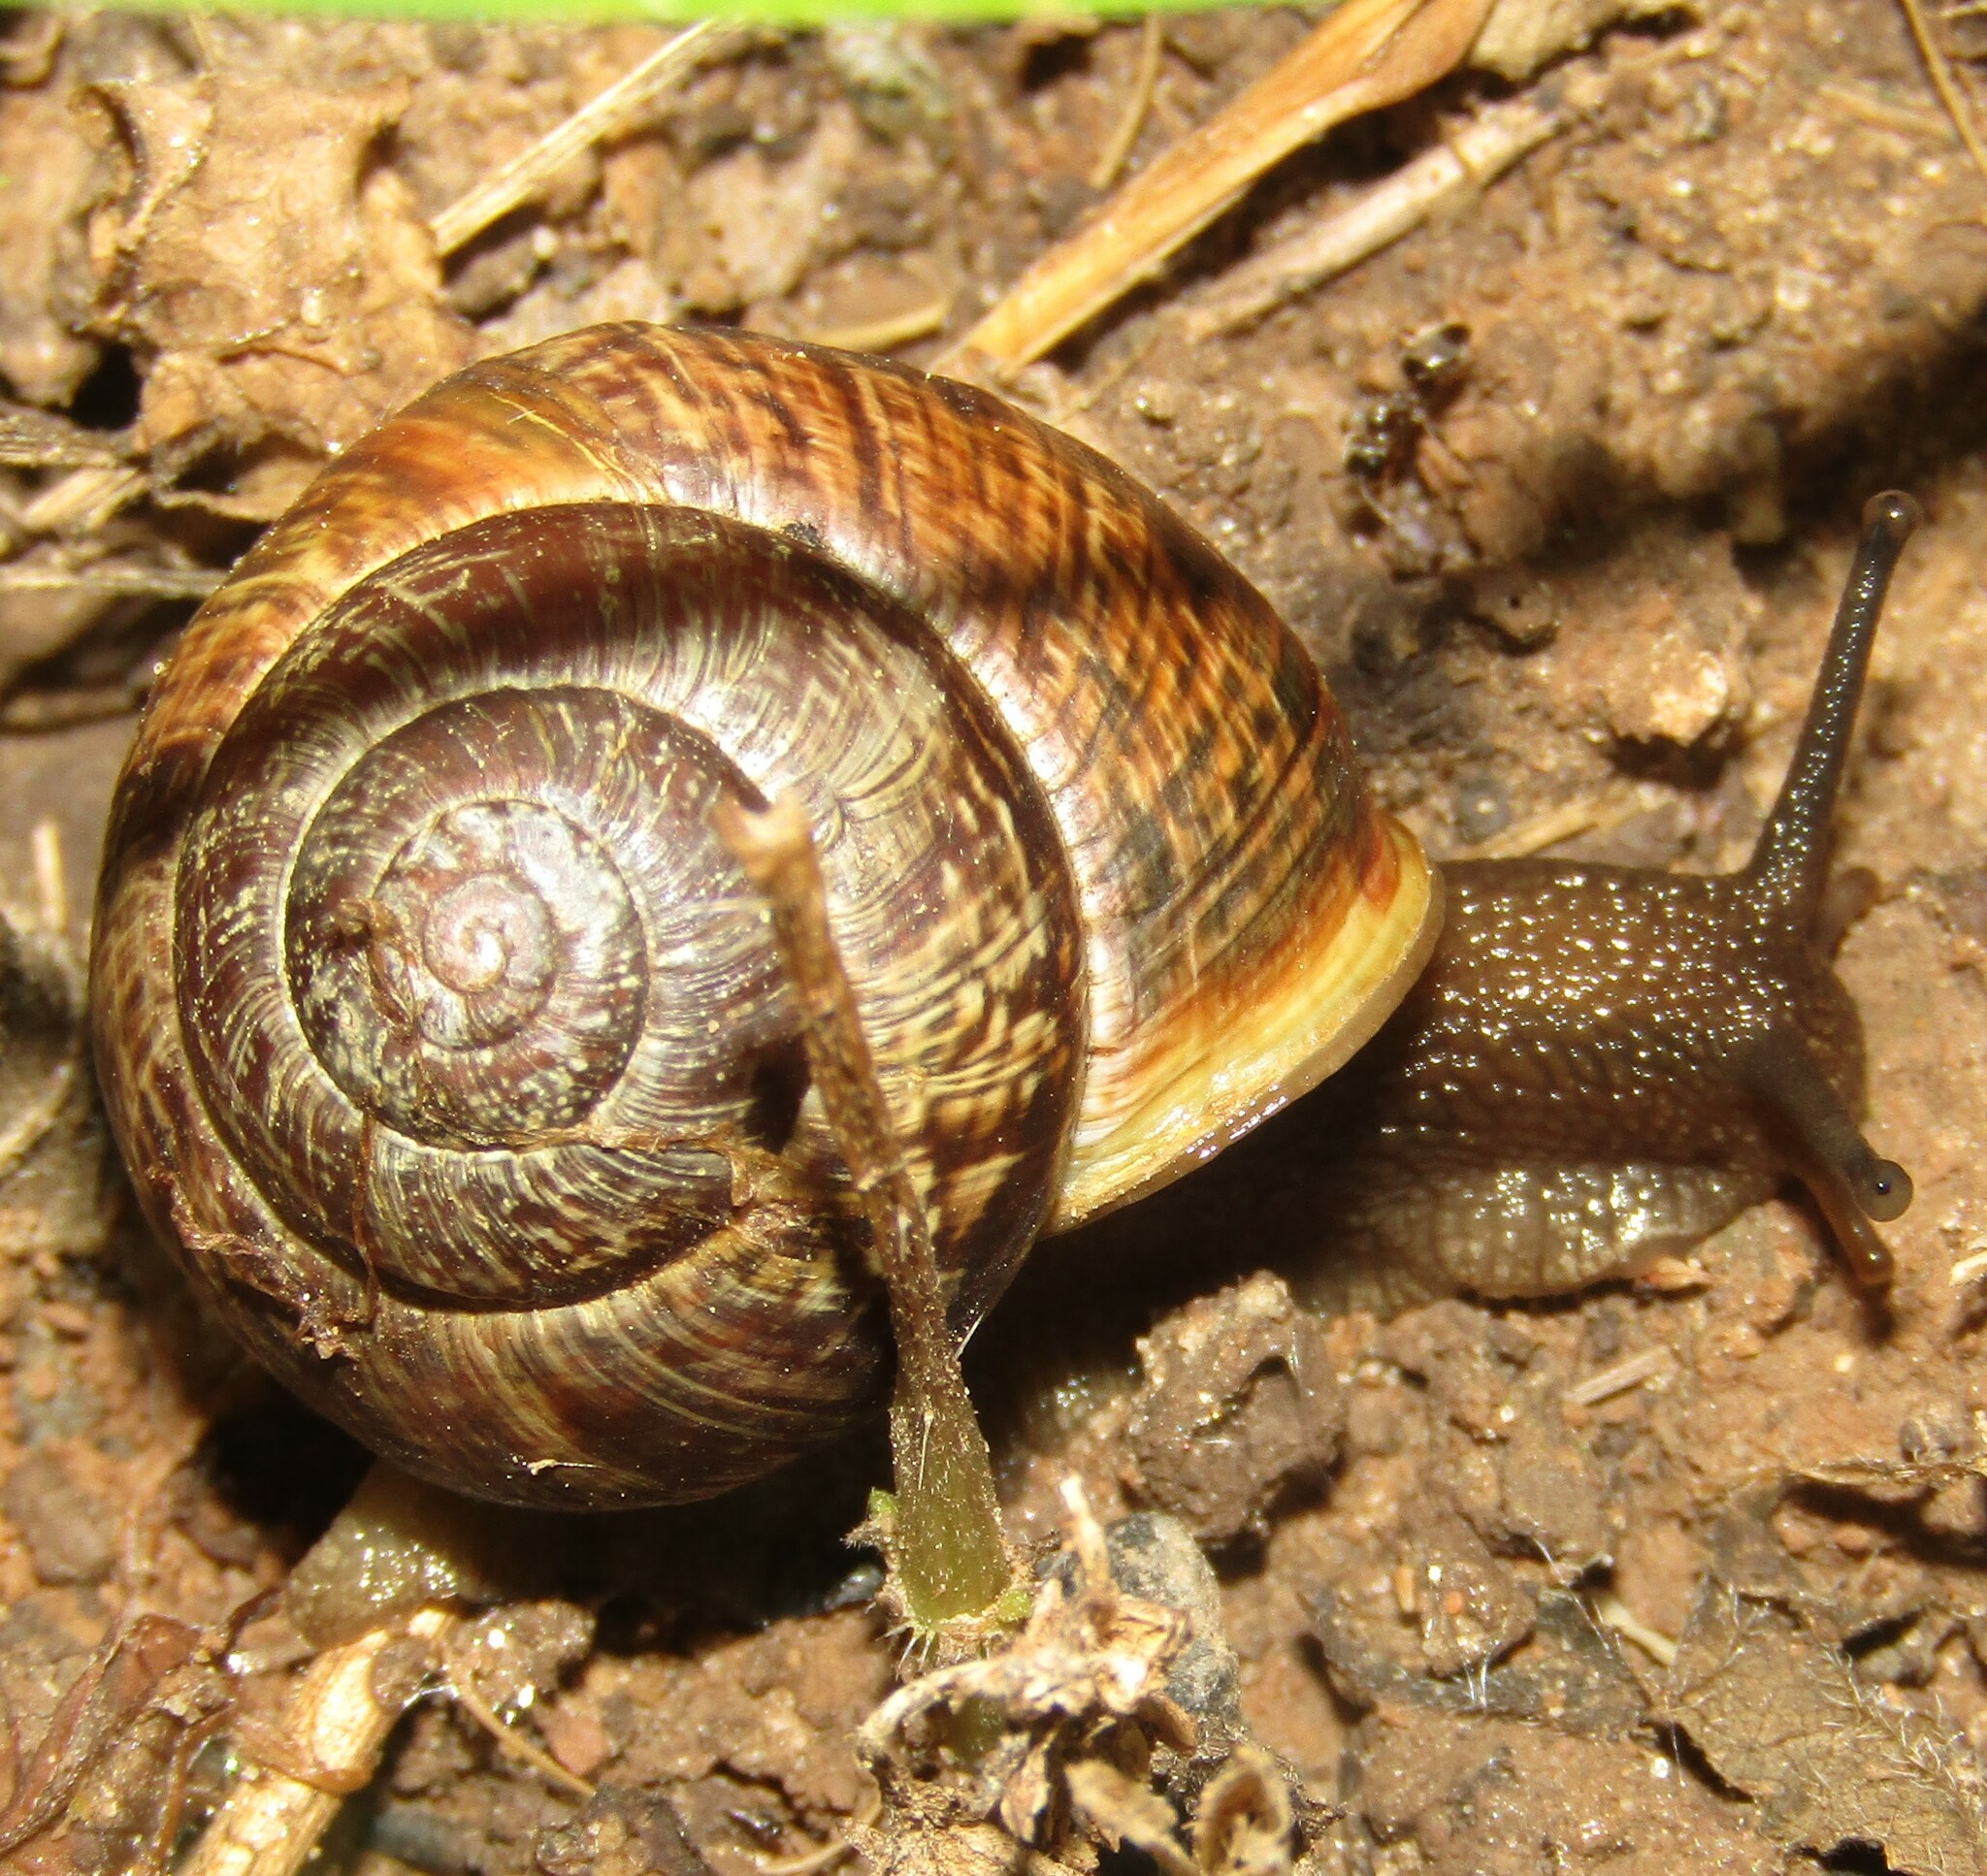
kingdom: Animalia
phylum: Mollusca
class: Gastropoda
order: Stylommatophora
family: Helicidae
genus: Arianta
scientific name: Arianta arbustorum
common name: Copse snail
